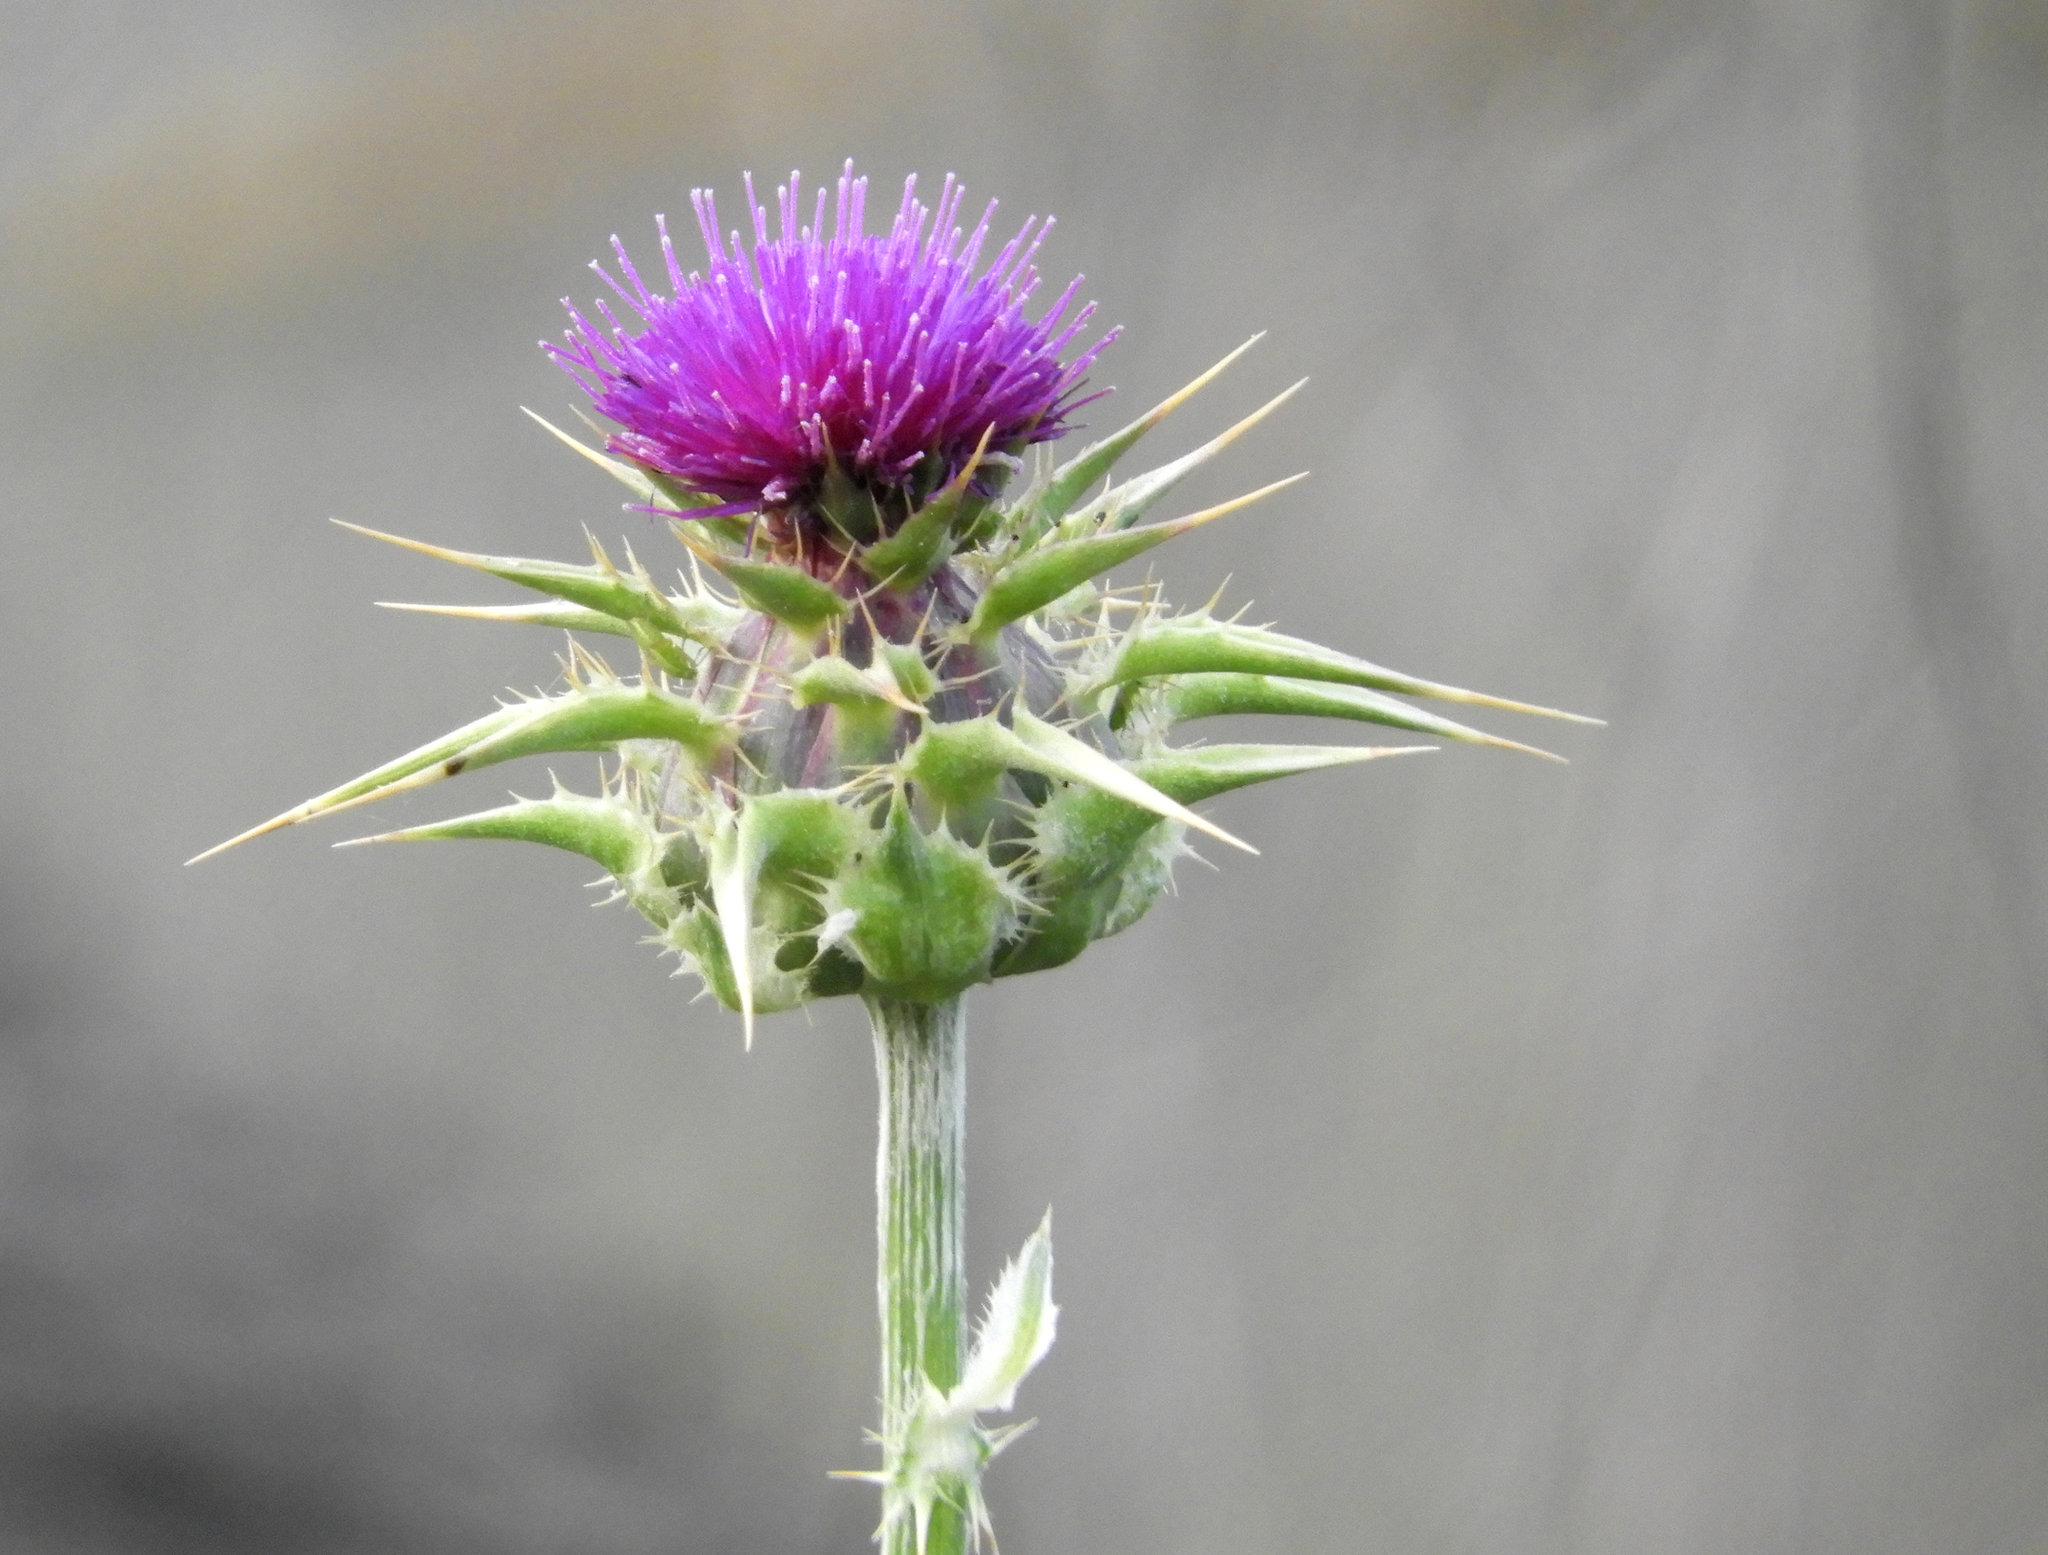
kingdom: Plantae
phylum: Tracheophyta
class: Magnoliopsida
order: Asterales
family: Asteraceae
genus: Silybum
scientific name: Silybum marianum
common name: Milk thistle
